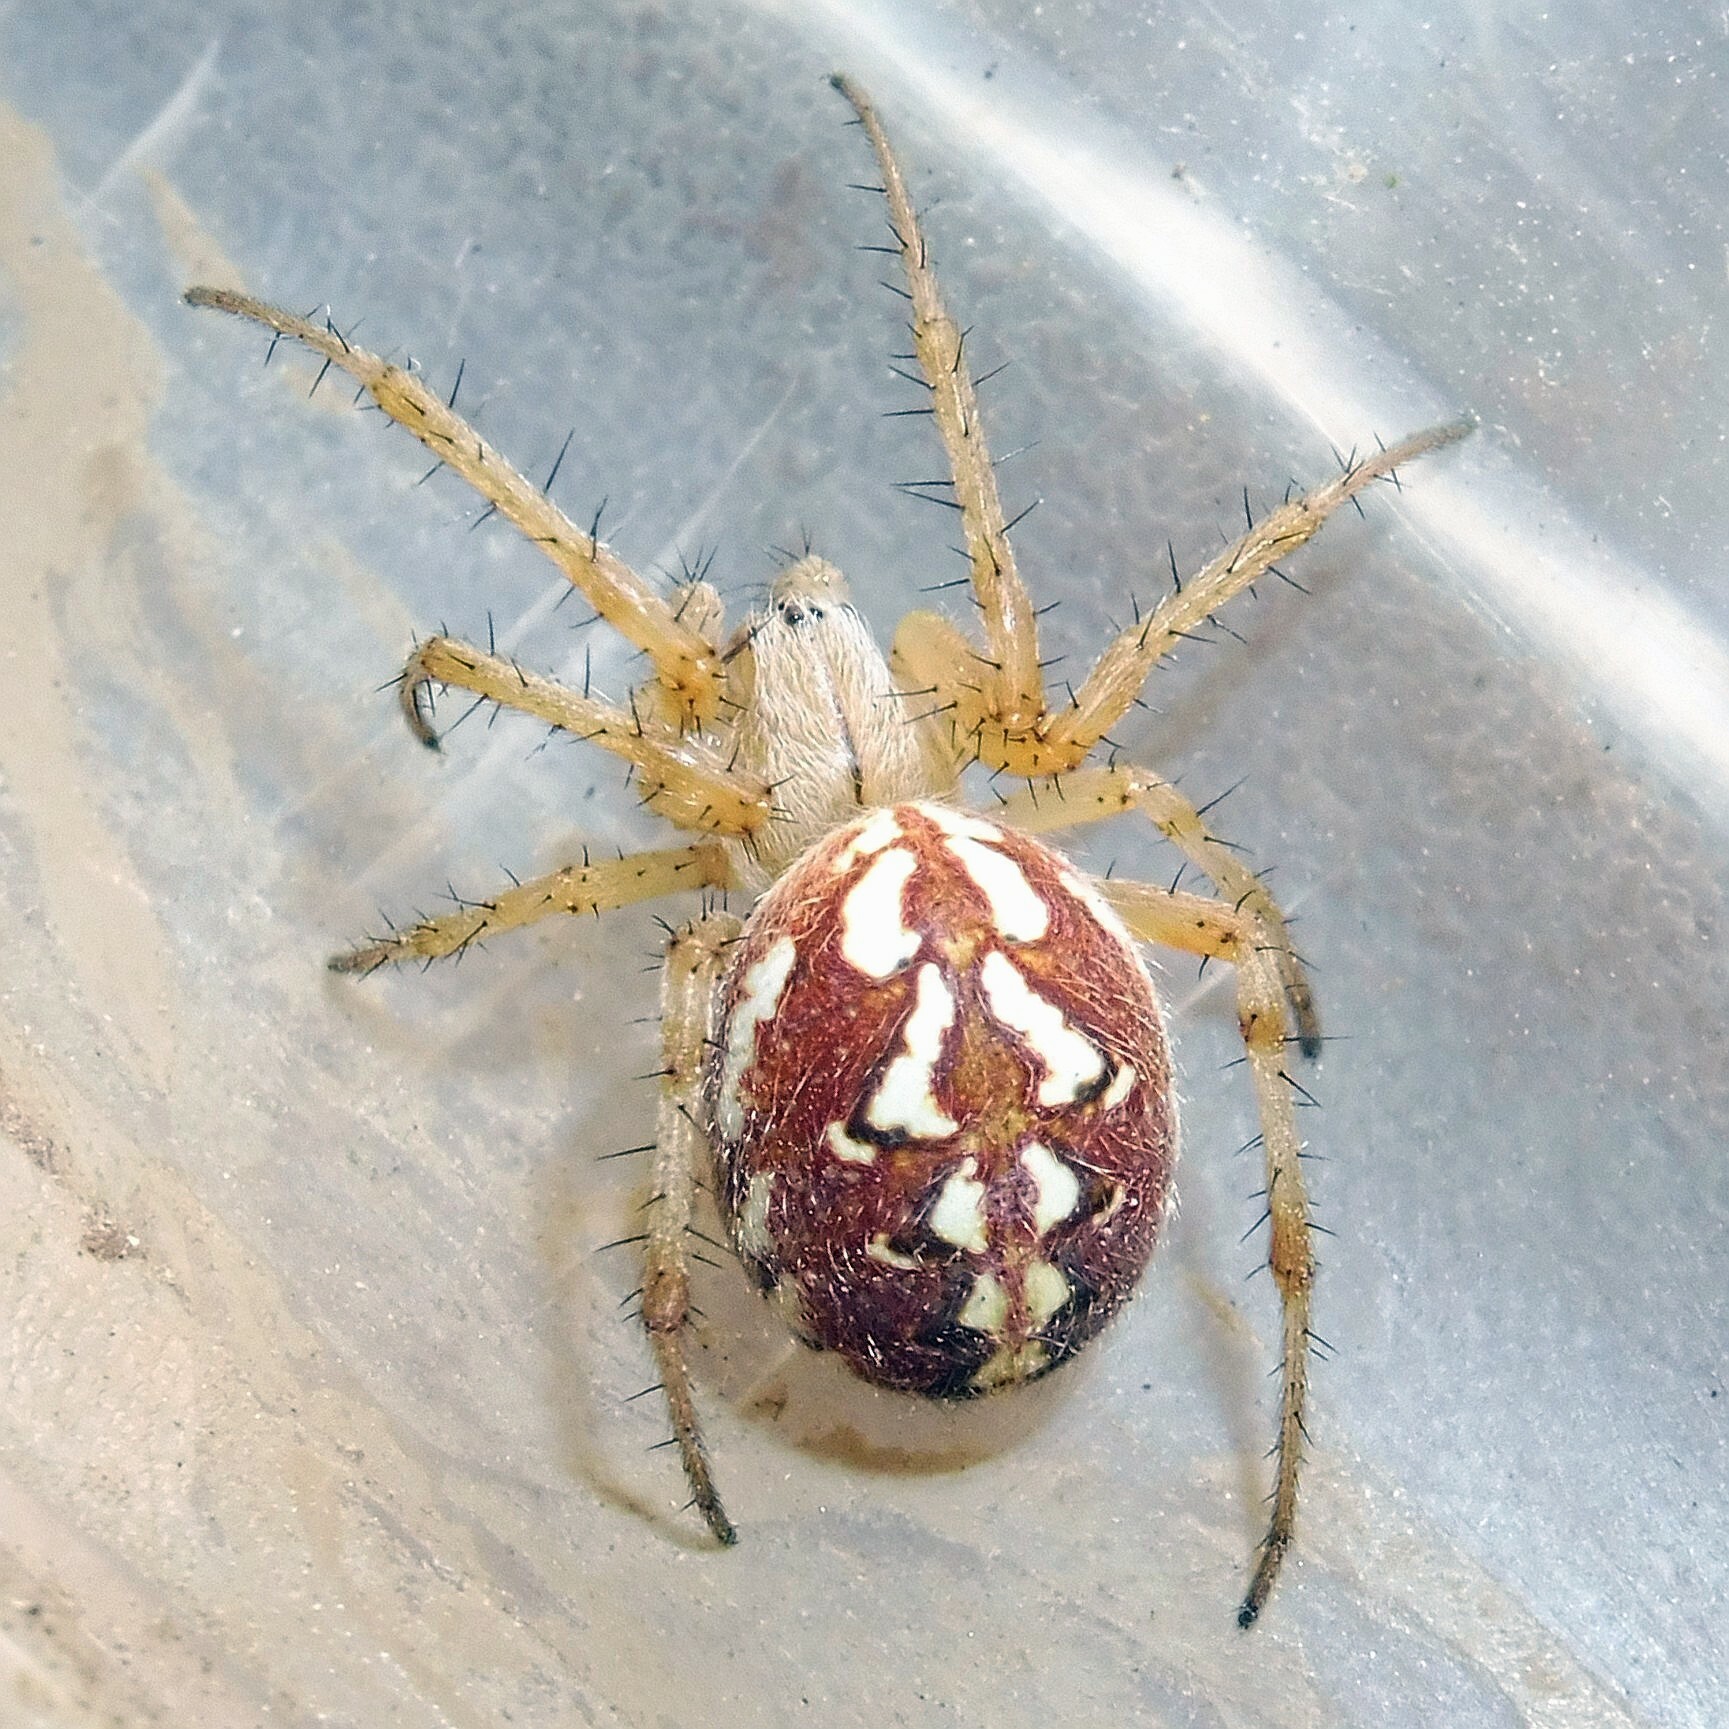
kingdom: Animalia
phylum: Arthropoda
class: Arachnida
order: Araneae
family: Araneidae
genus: Neoscona
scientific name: Neoscona adianta
